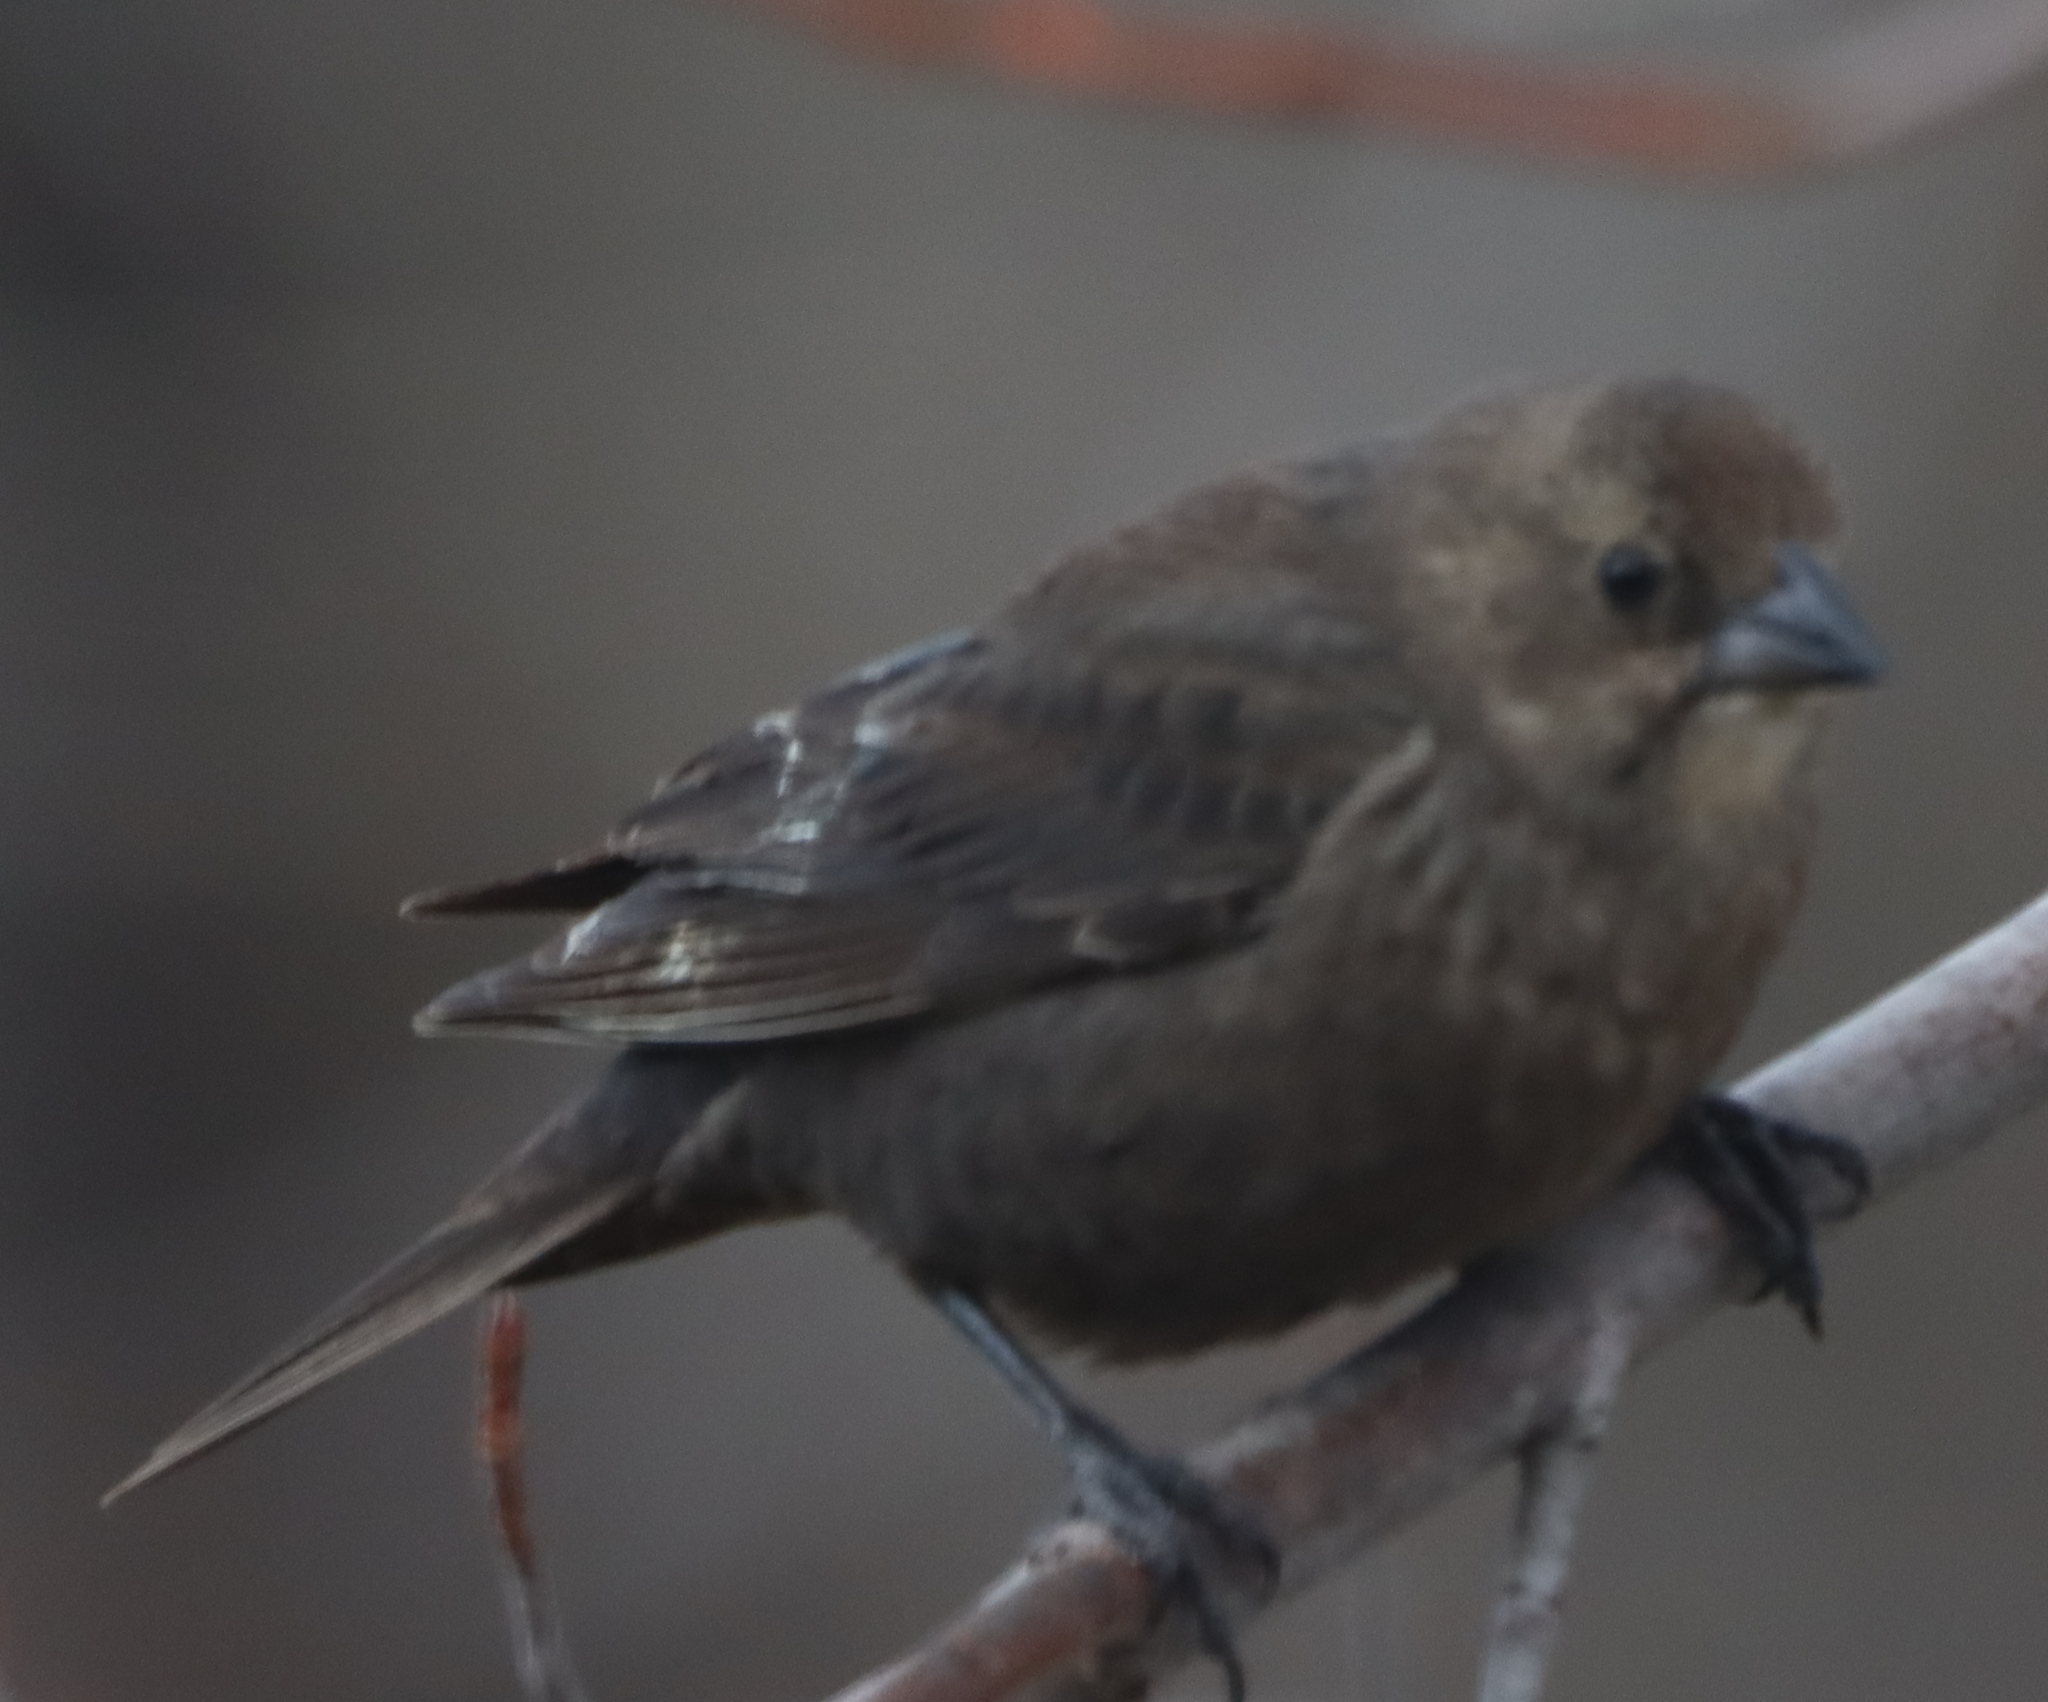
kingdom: Animalia
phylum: Chordata
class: Aves
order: Passeriformes
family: Icteridae
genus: Molothrus
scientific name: Molothrus ater
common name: Brown-headed cowbird
